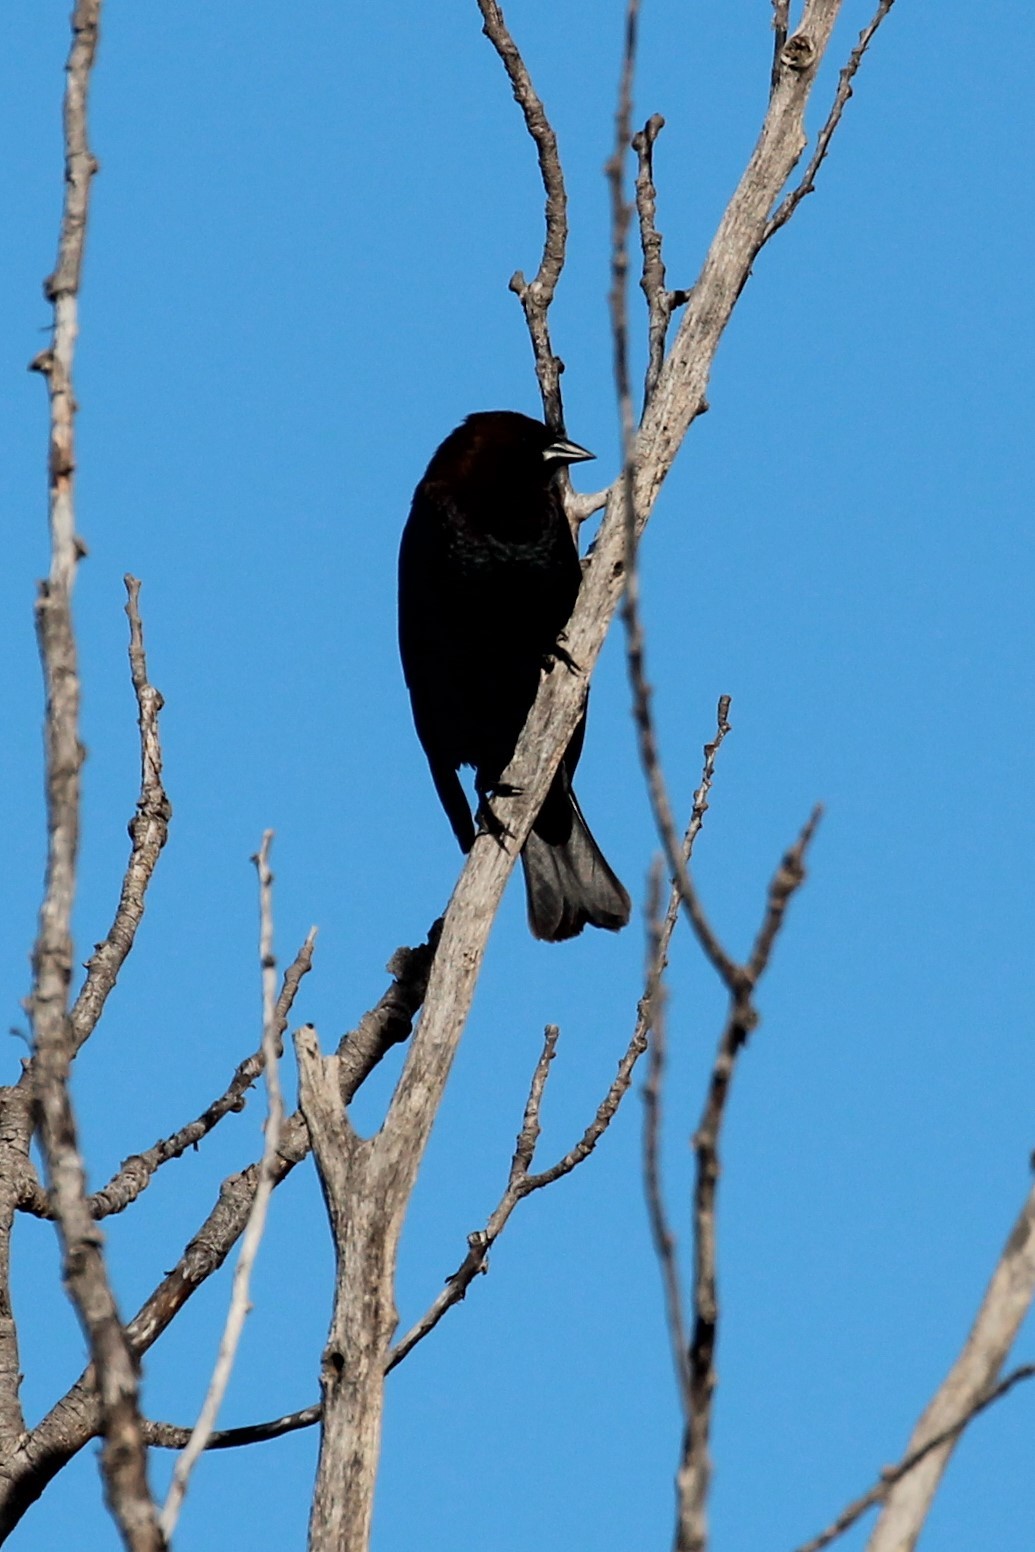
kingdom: Animalia
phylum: Chordata
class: Aves
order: Passeriformes
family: Icteridae
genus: Molothrus
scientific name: Molothrus ater
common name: Brown-headed cowbird
